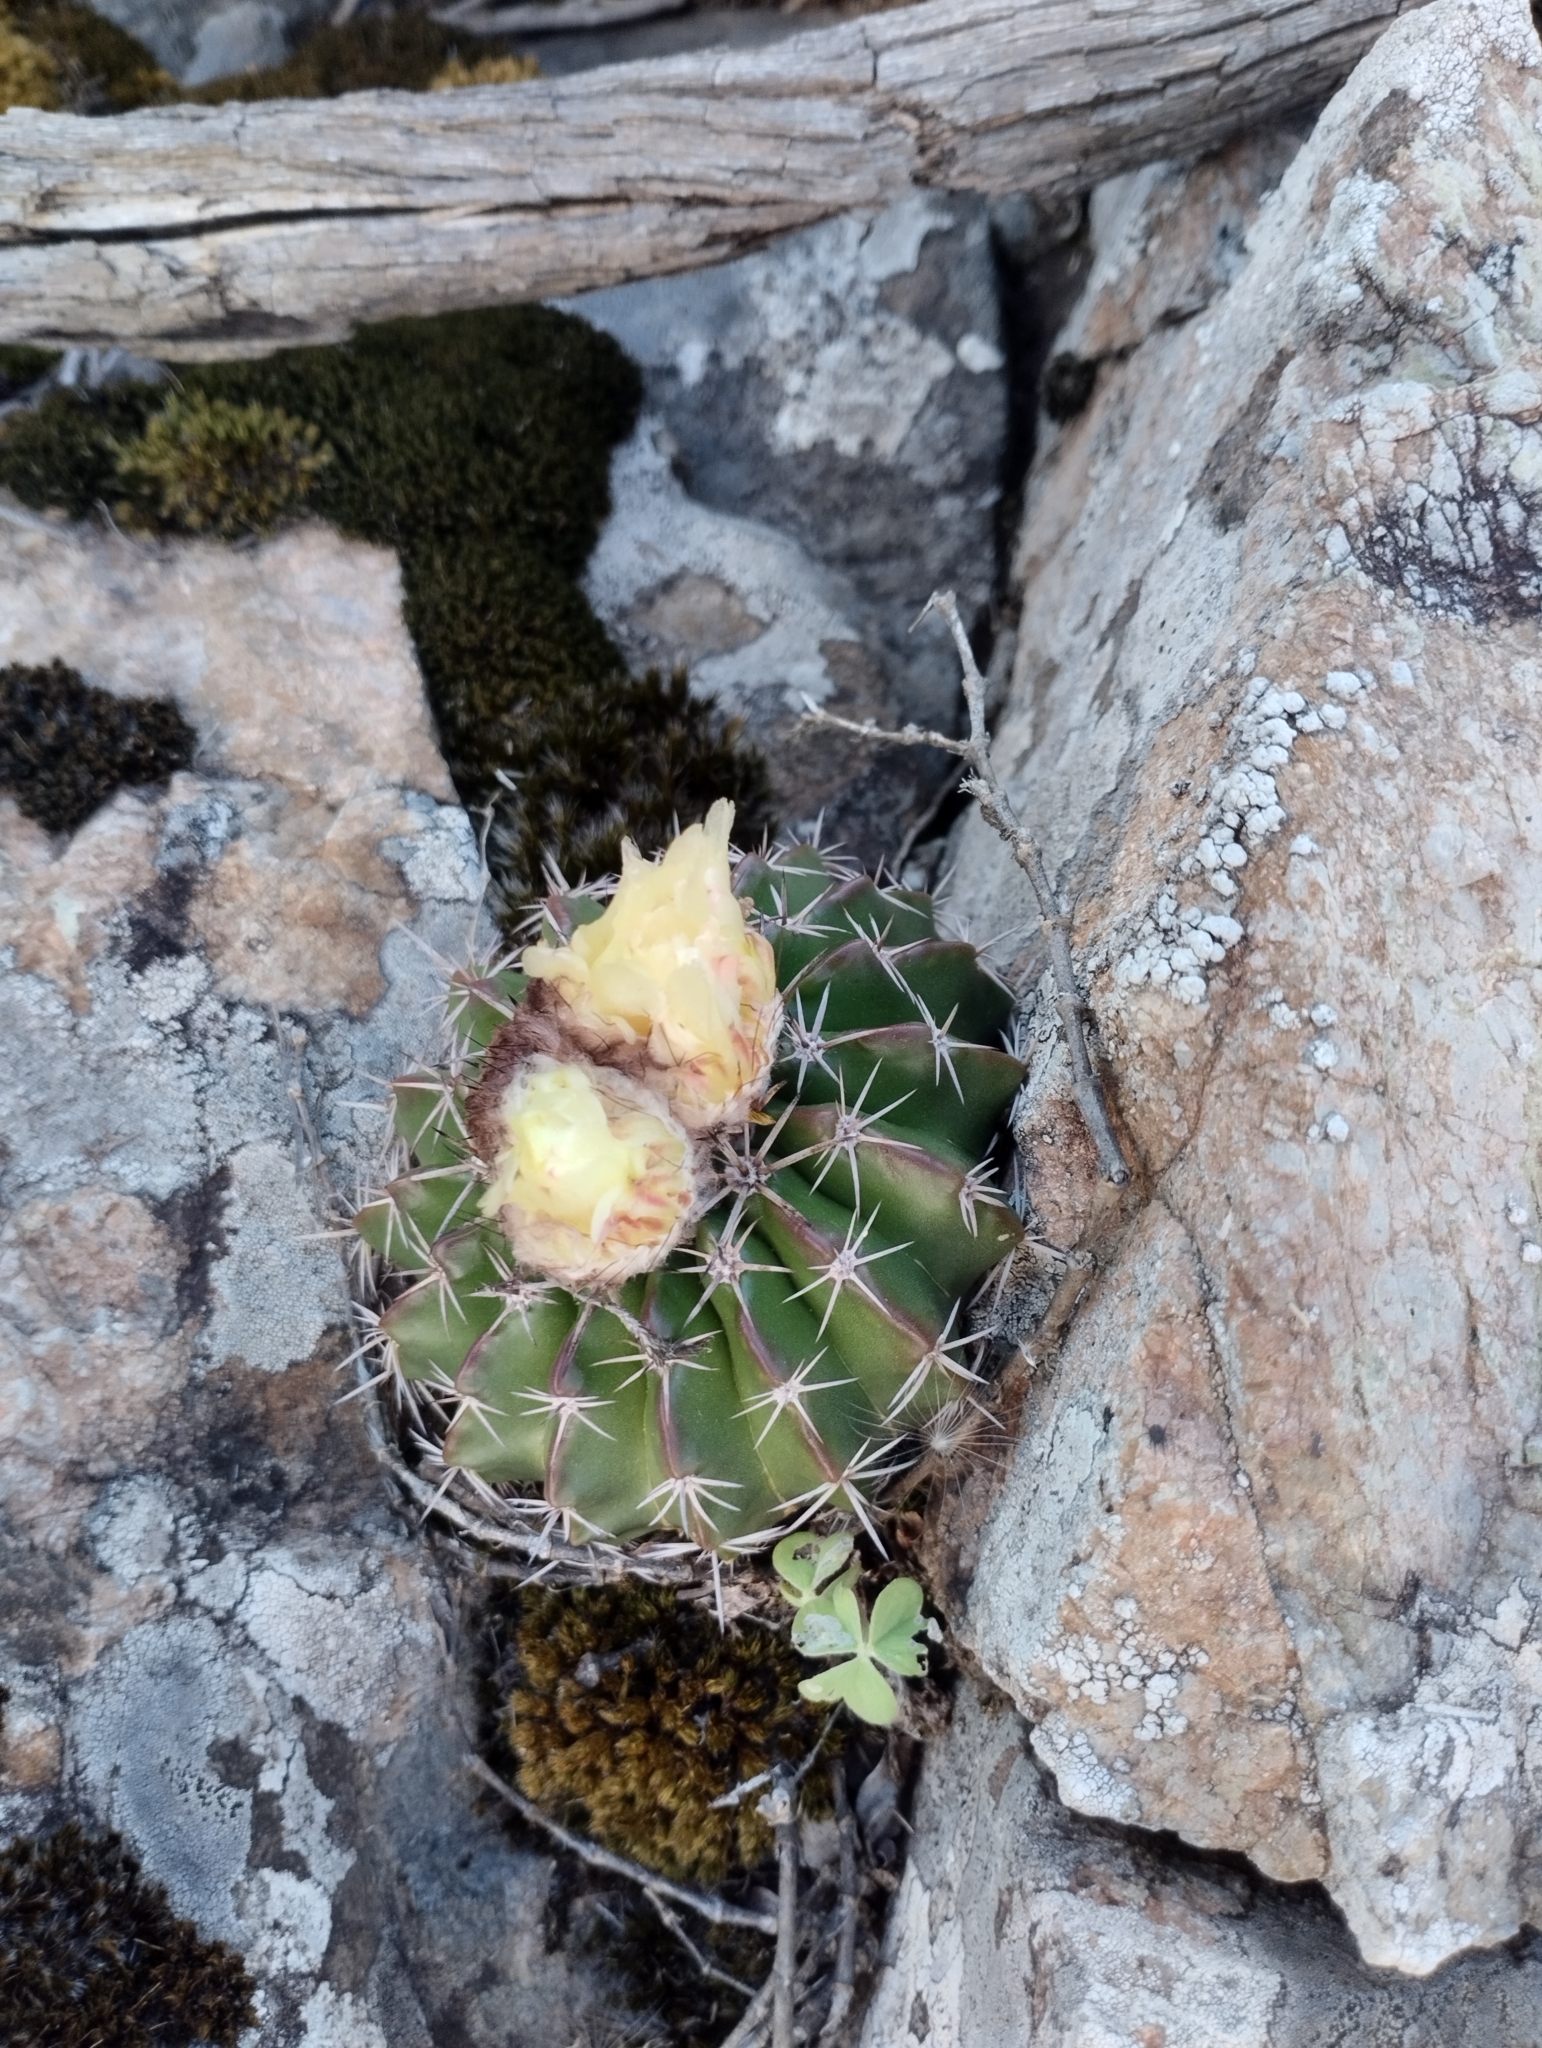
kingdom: Plantae
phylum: Tracheophyta
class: Magnoliopsida
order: Caryophyllales
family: Cactaceae
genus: Parodia
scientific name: Parodia erinacea
